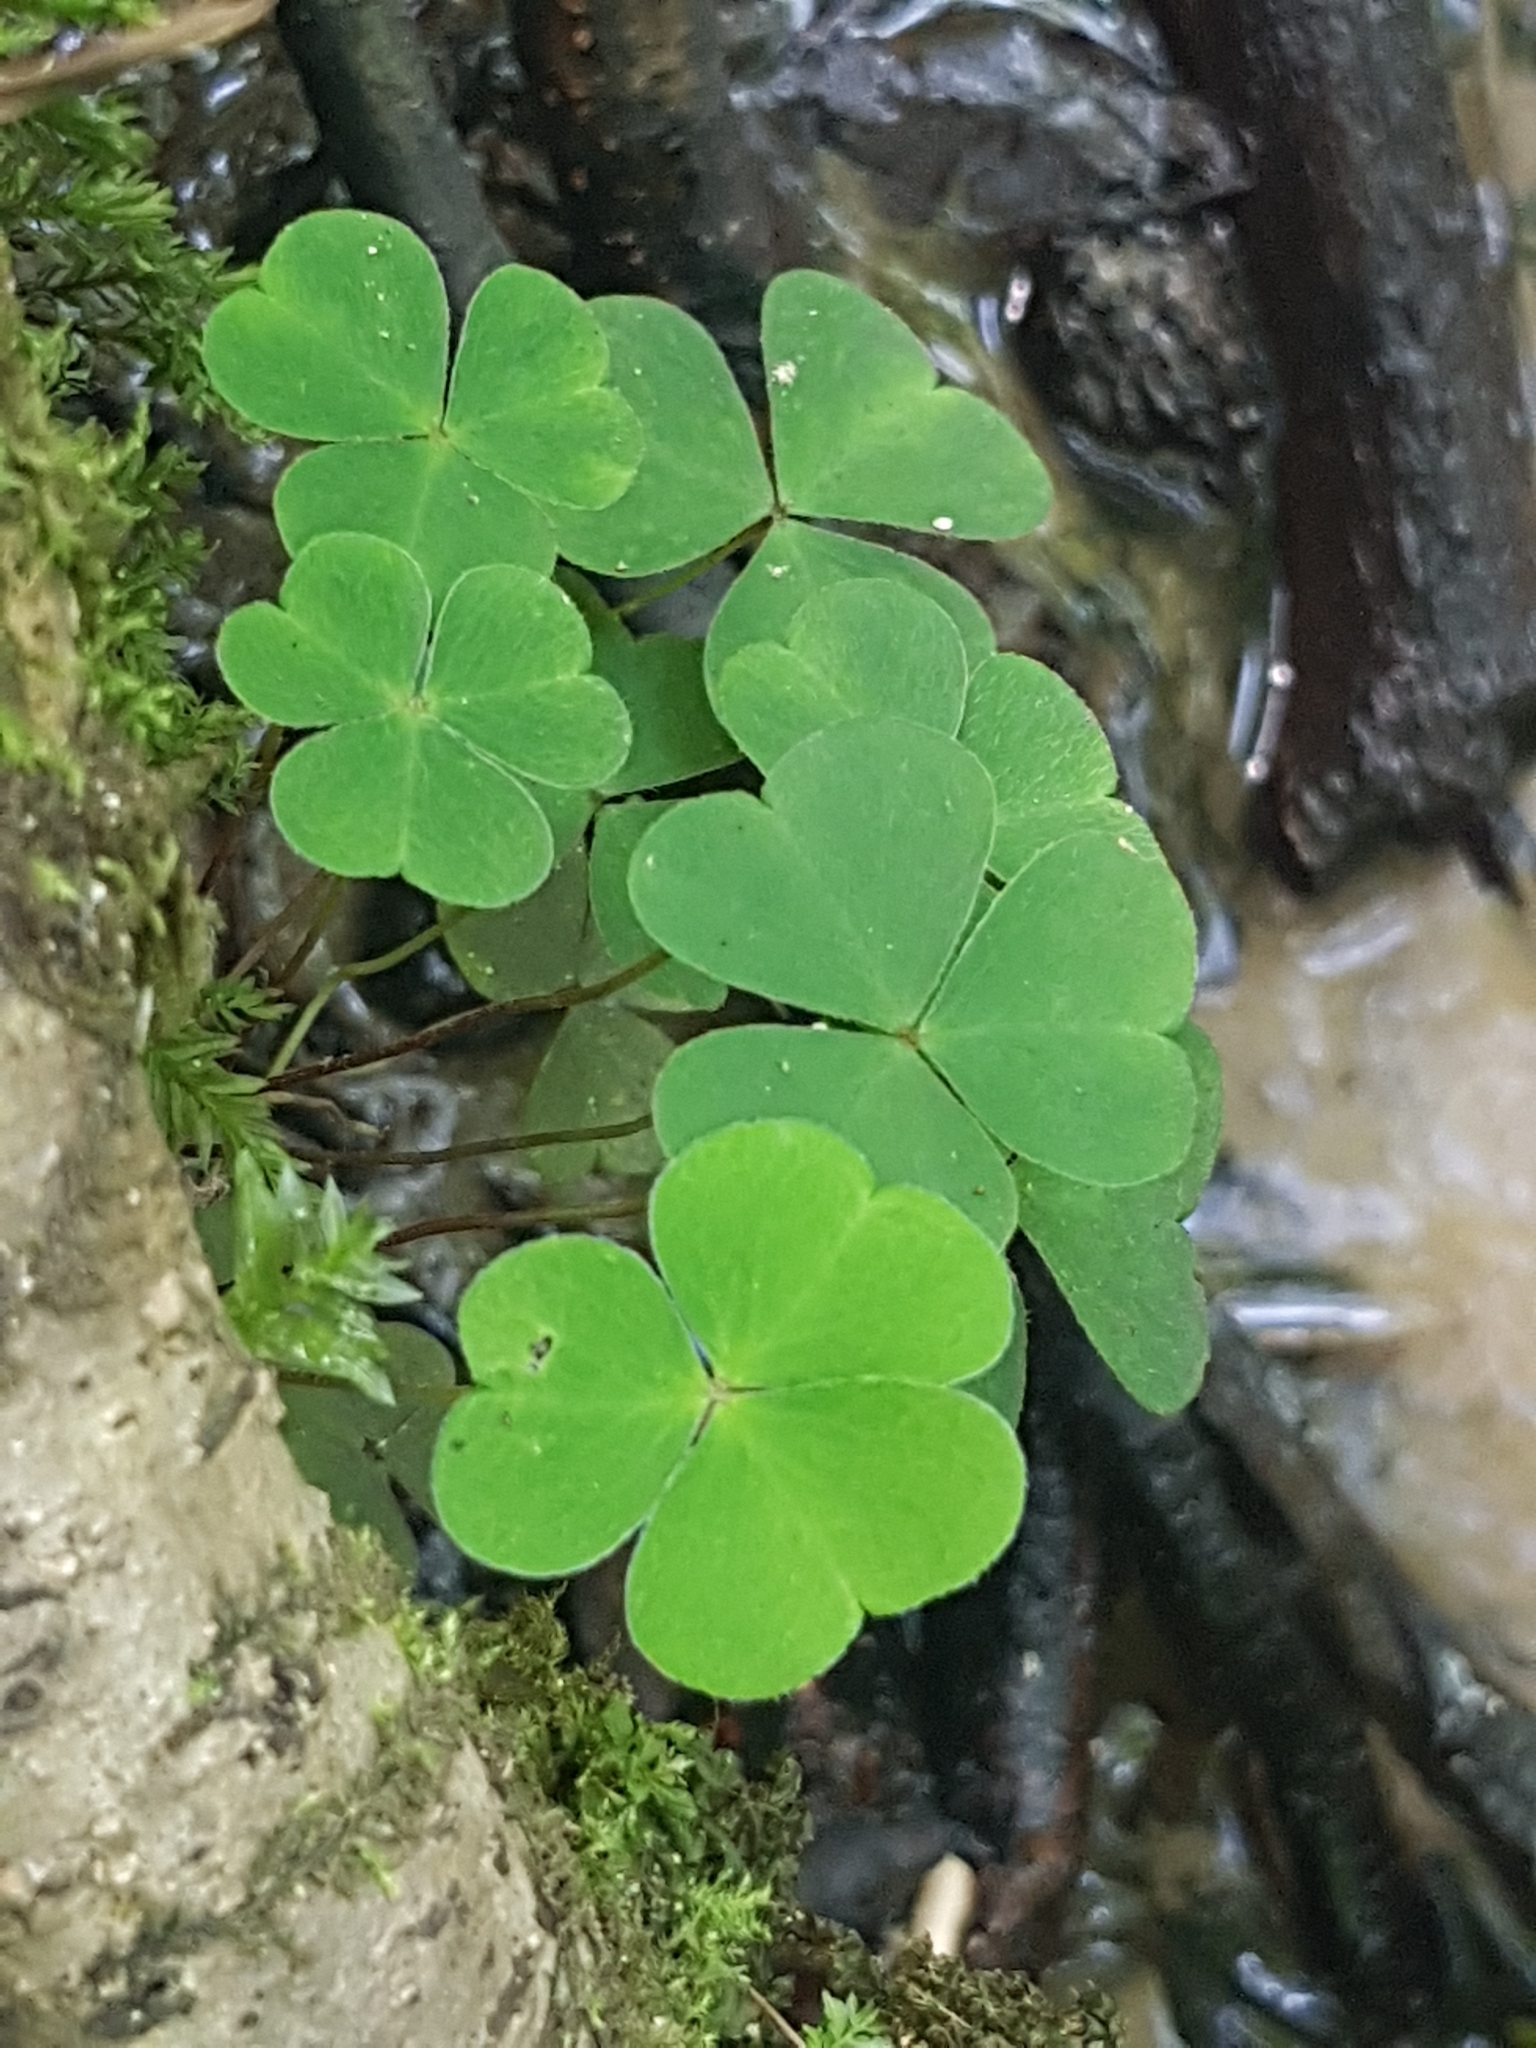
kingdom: Plantae
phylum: Tracheophyta
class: Magnoliopsida
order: Oxalidales
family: Oxalidaceae
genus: Oxalis
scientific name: Oxalis acetosella
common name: Wood-sorrel
